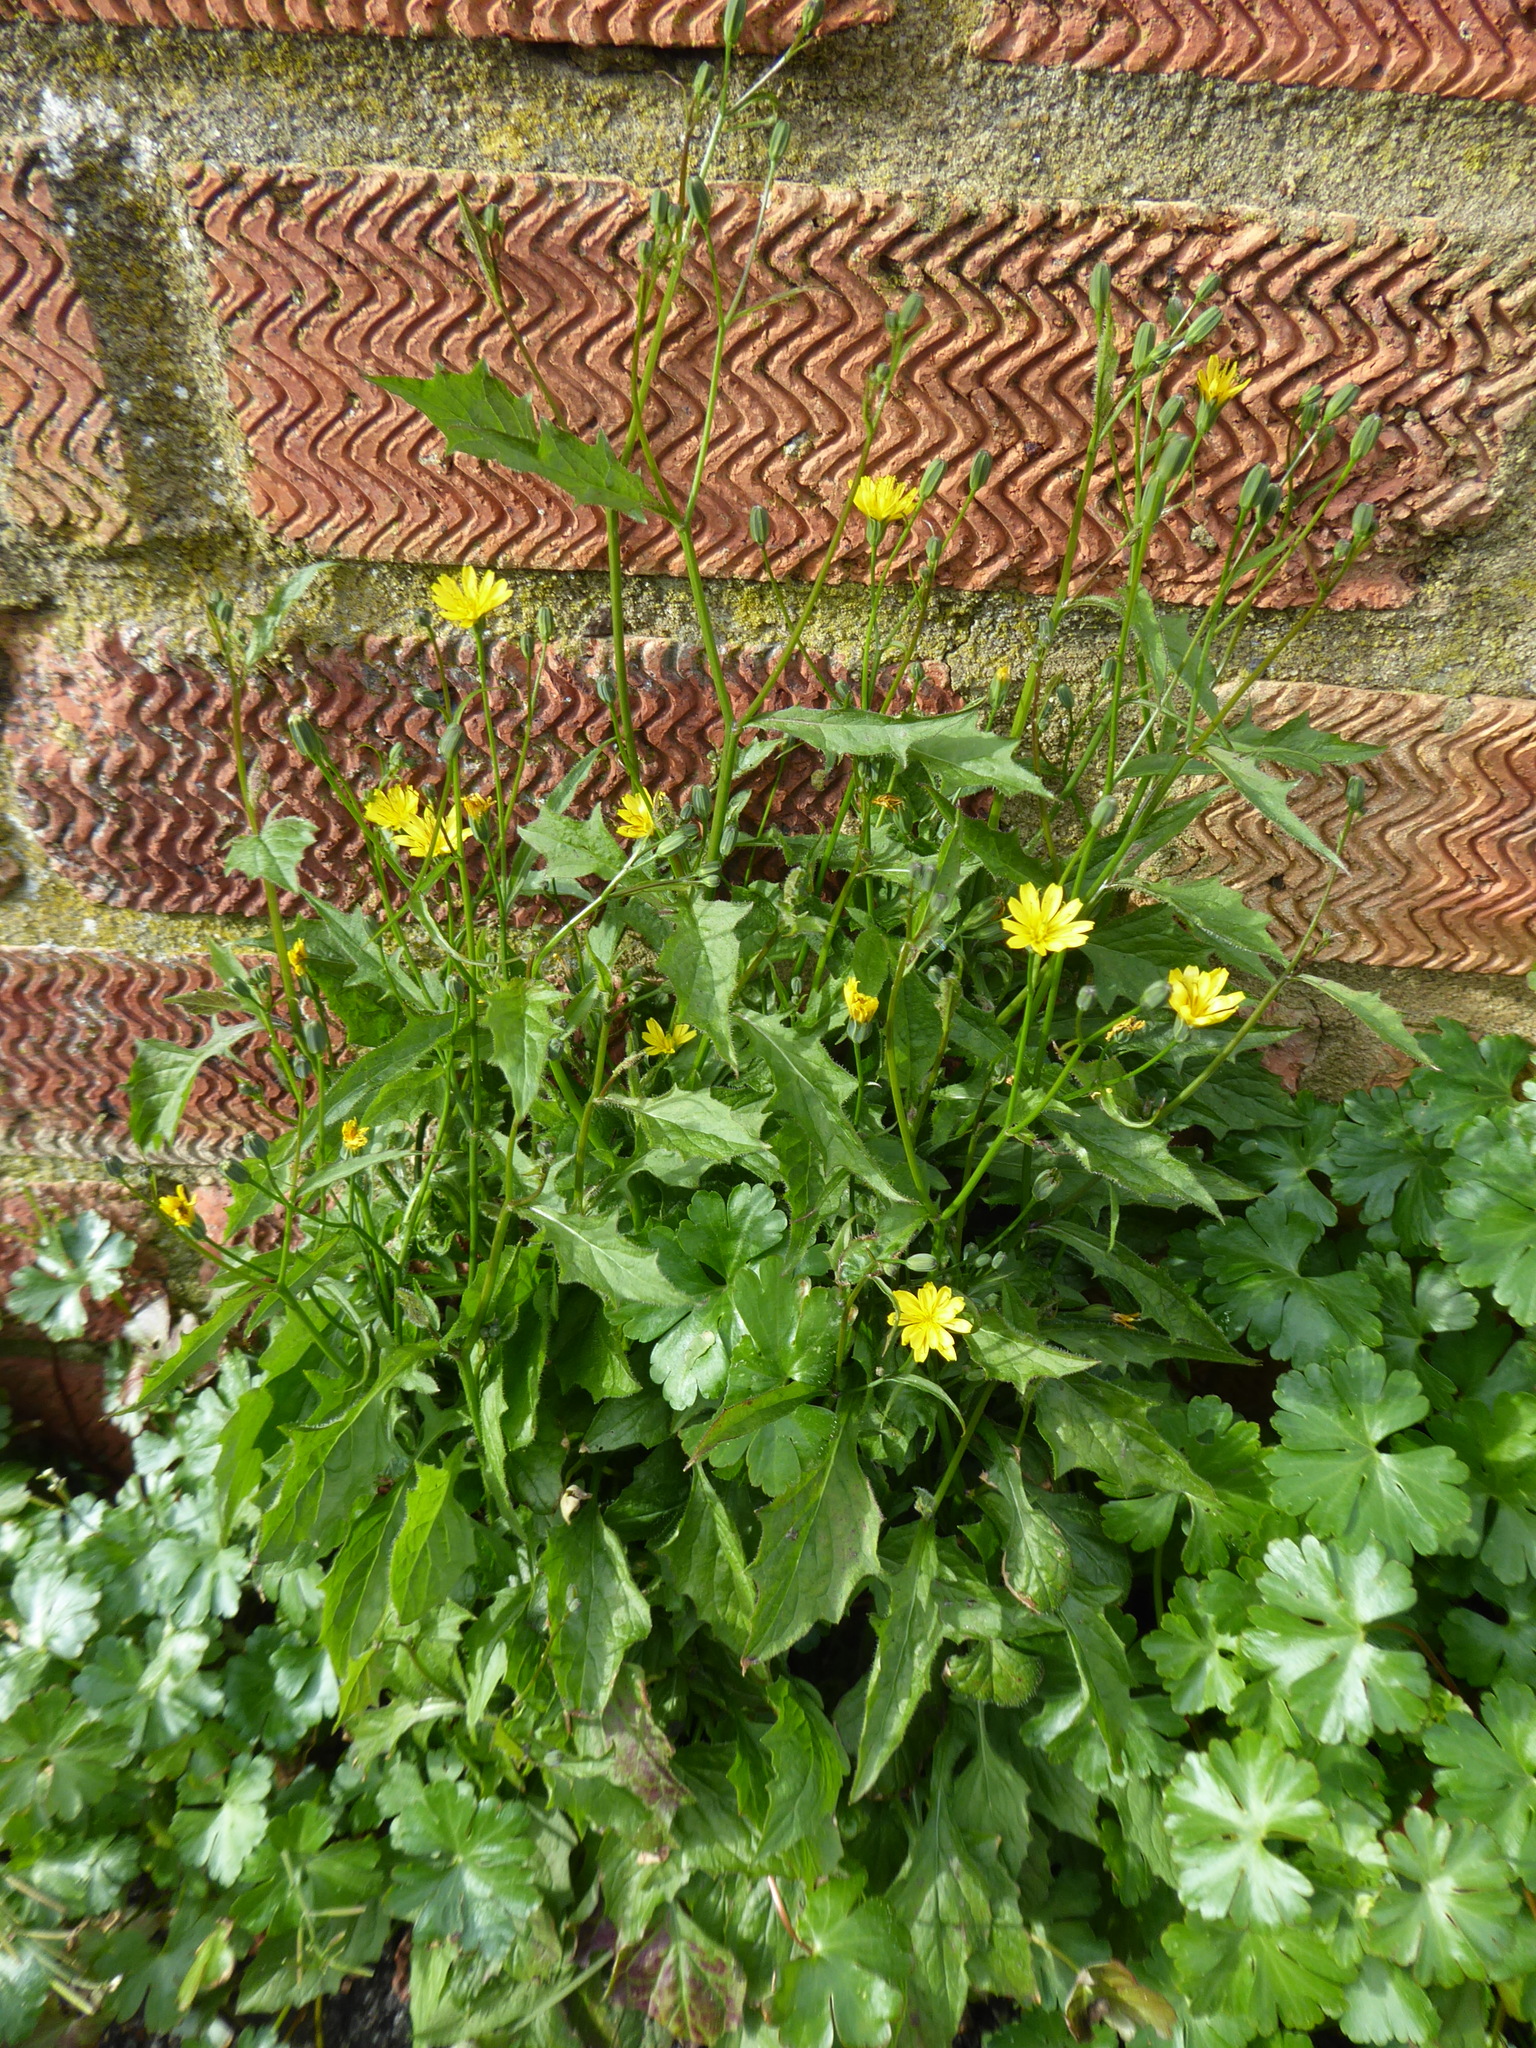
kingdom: Plantae
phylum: Tracheophyta
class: Magnoliopsida
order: Asterales
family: Asteraceae
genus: Lapsana
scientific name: Lapsana communis
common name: Nipplewort
